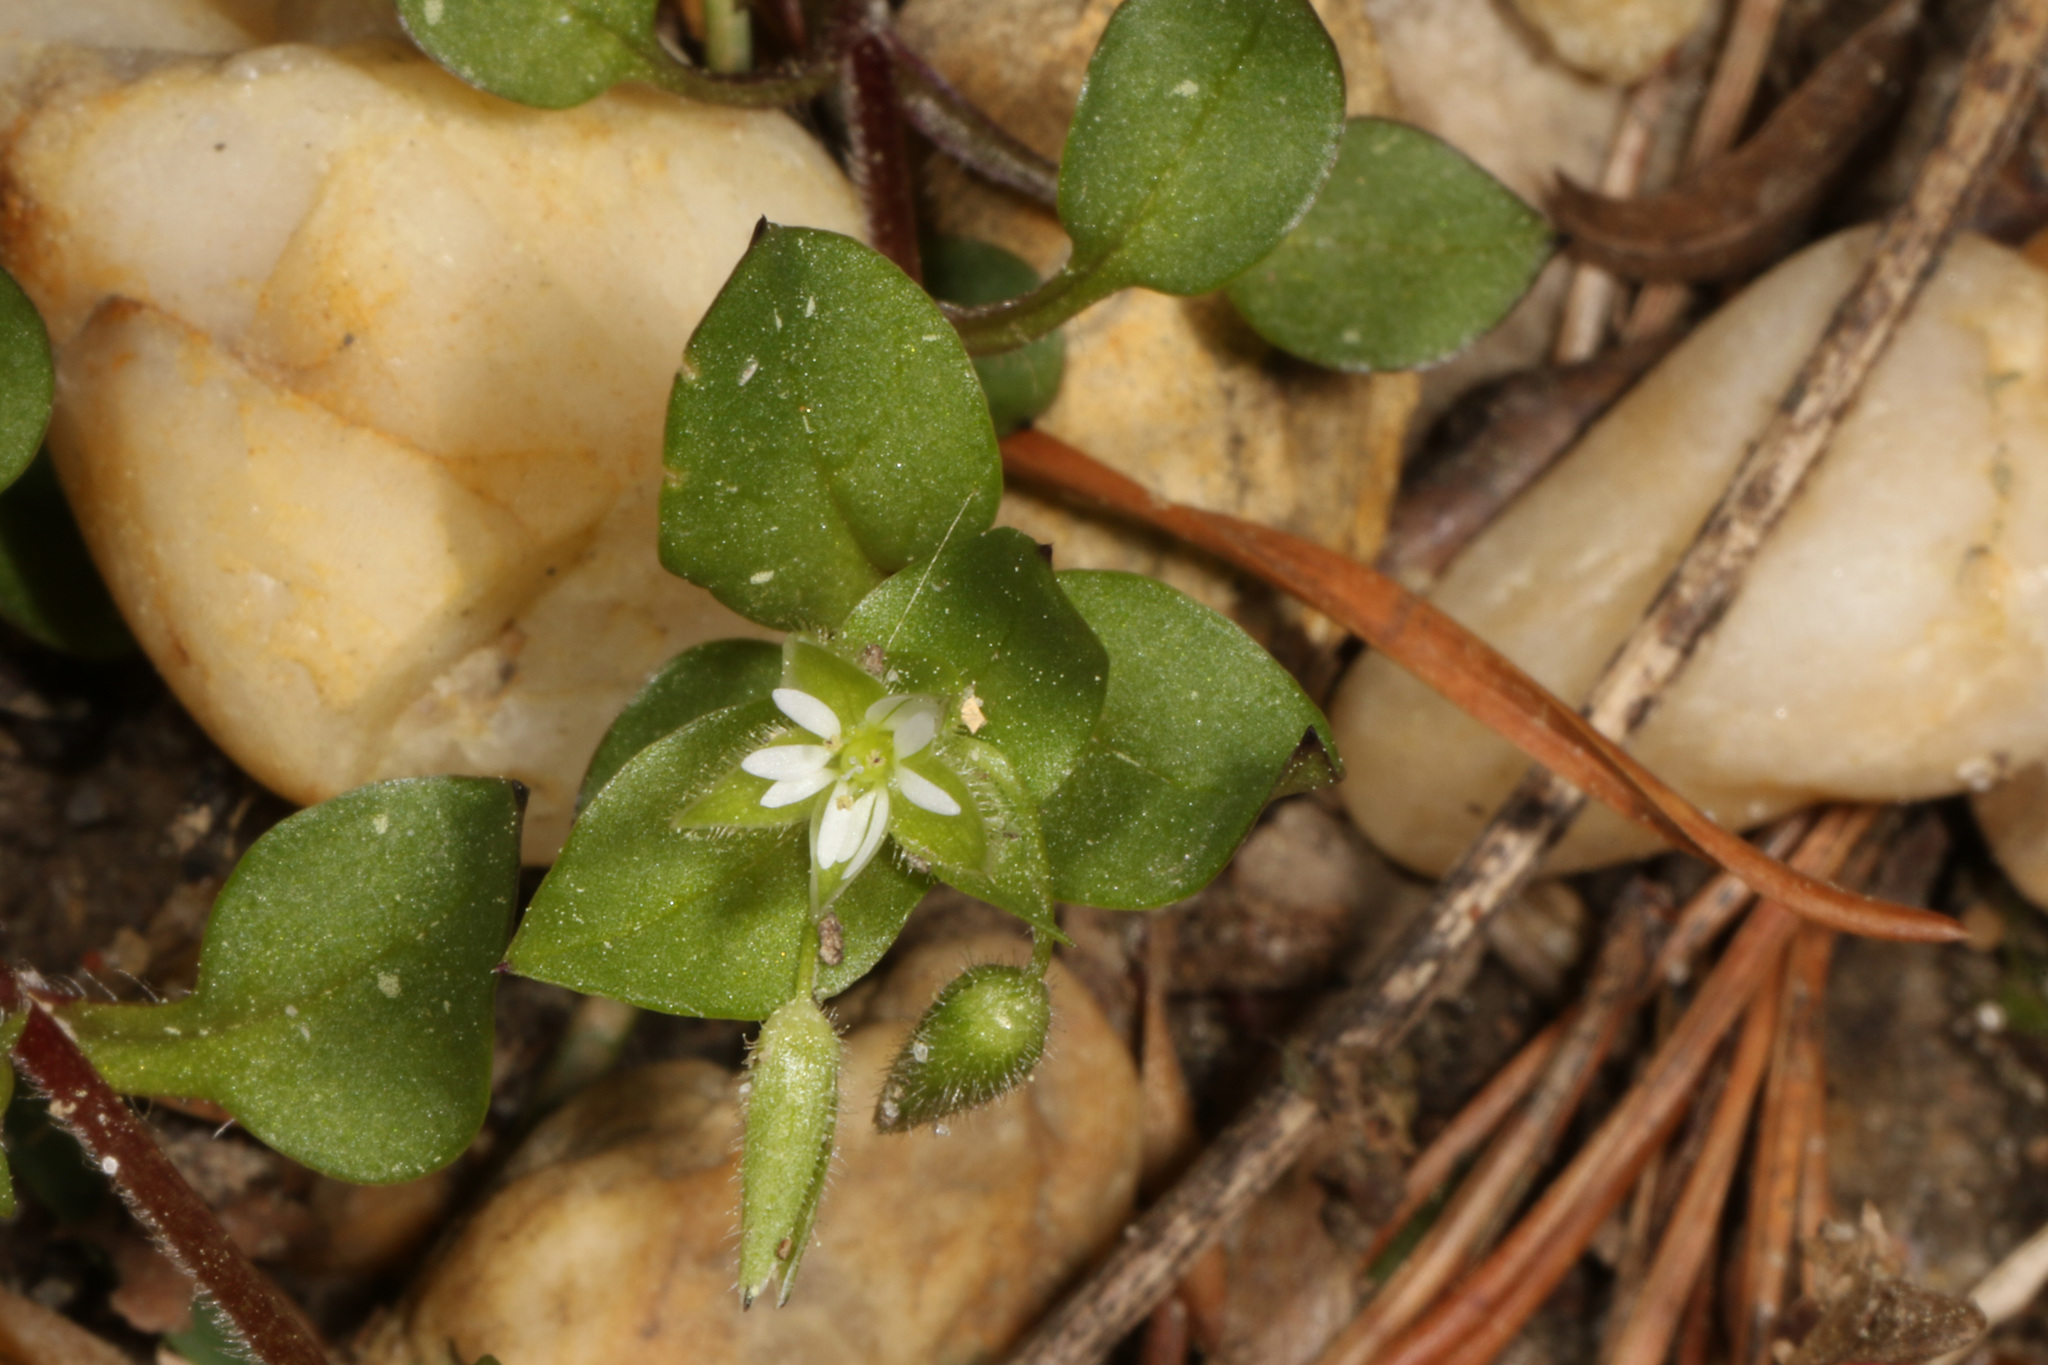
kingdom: Plantae
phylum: Tracheophyta
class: Magnoliopsida
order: Caryophyllales
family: Caryophyllaceae
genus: Stellaria
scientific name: Stellaria media
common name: Common chickweed
